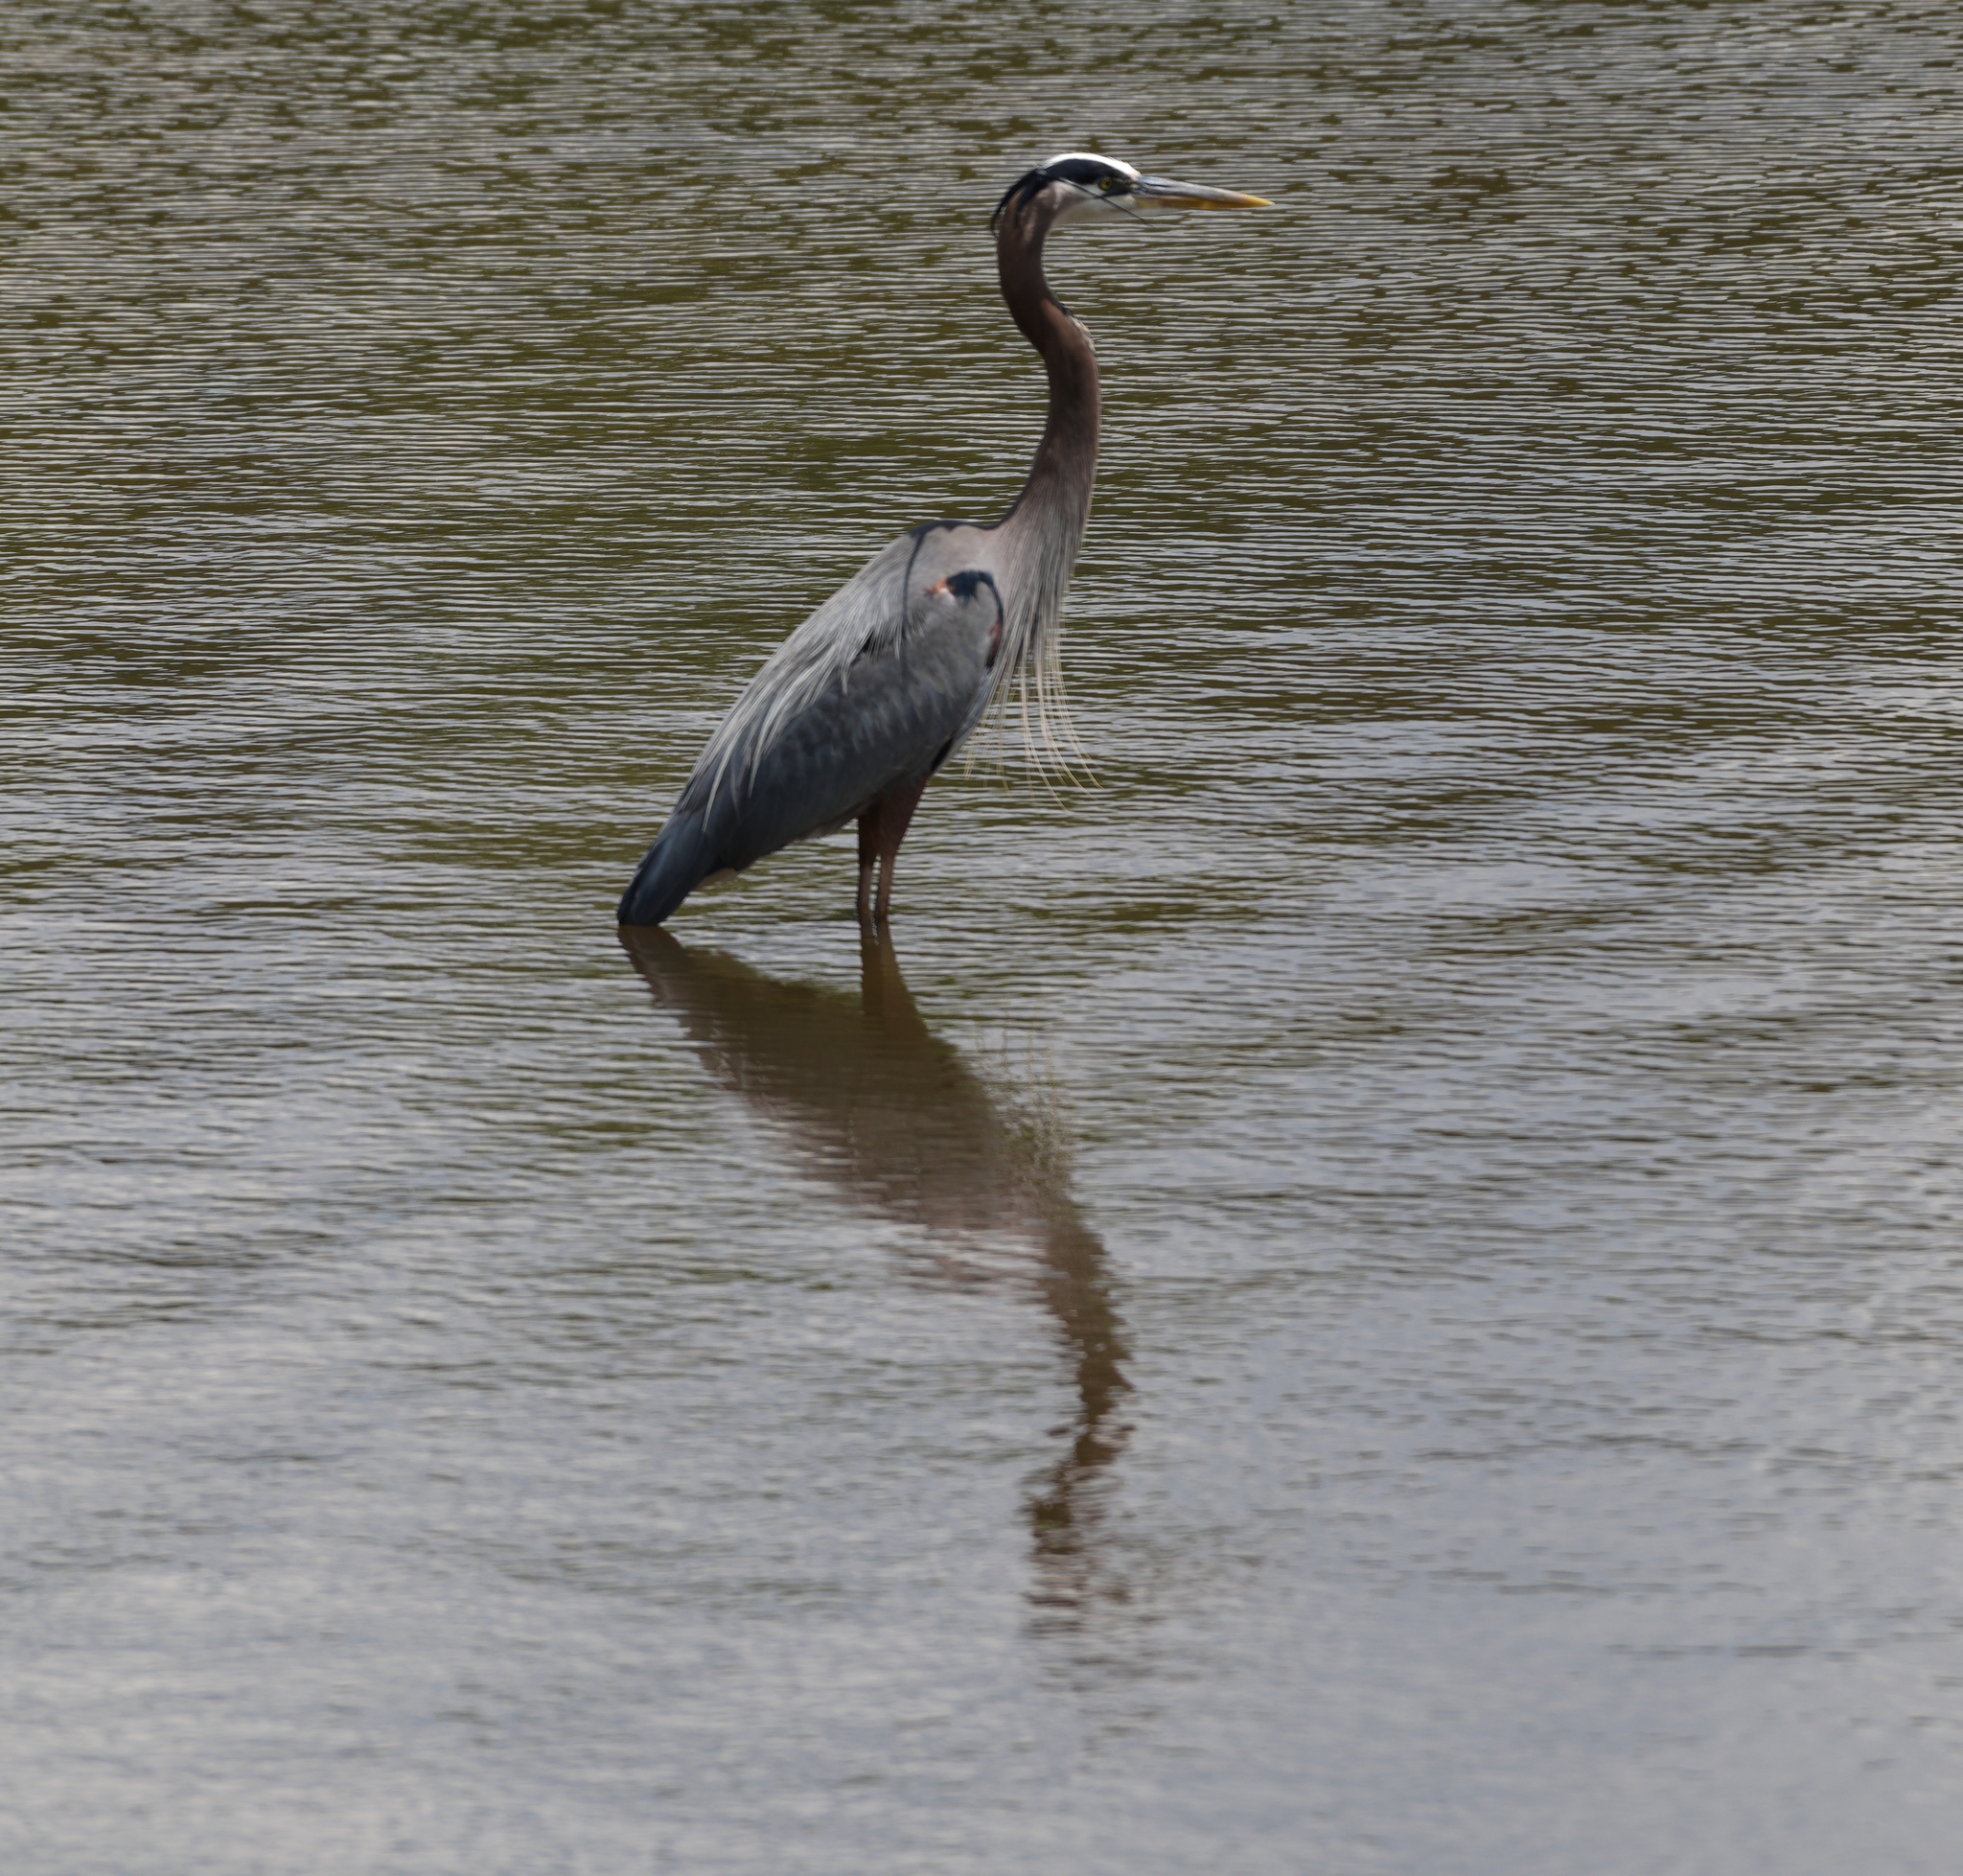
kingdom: Animalia
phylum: Chordata
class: Aves
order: Pelecaniformes
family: Ardeidae
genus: Ardea
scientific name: Ardea herodias
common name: Great blue heron
